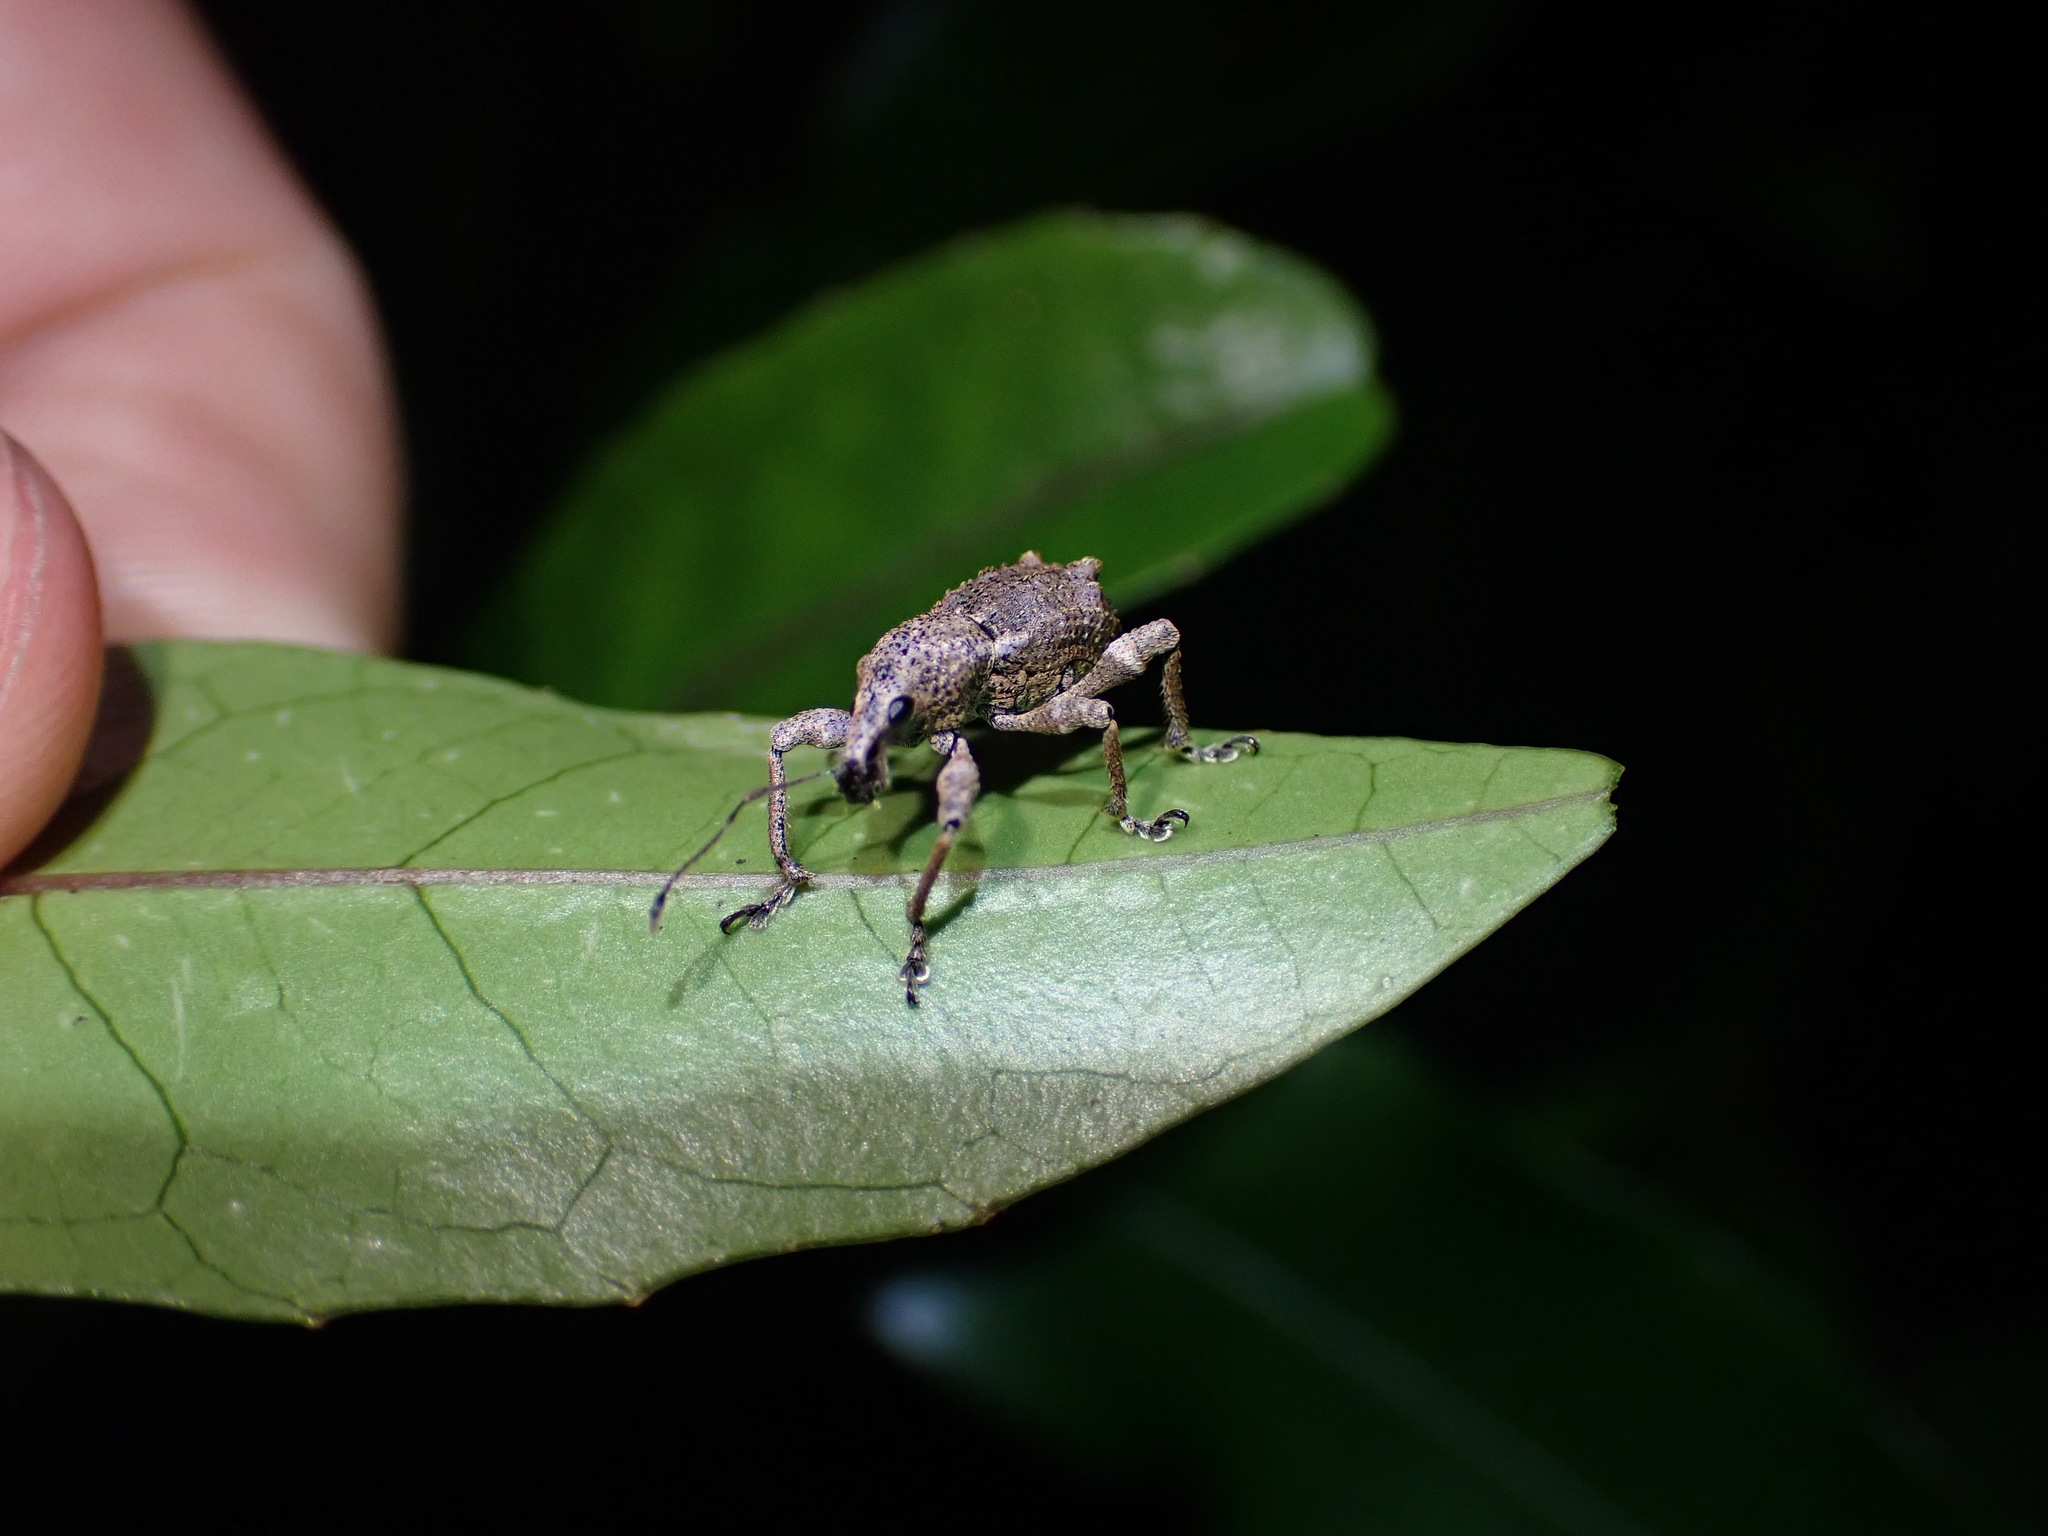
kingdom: Animalia
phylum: Arthropoda
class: Insecta
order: Coleoptera
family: Curculionidae
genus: Catoptes
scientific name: Catoptes binodis
